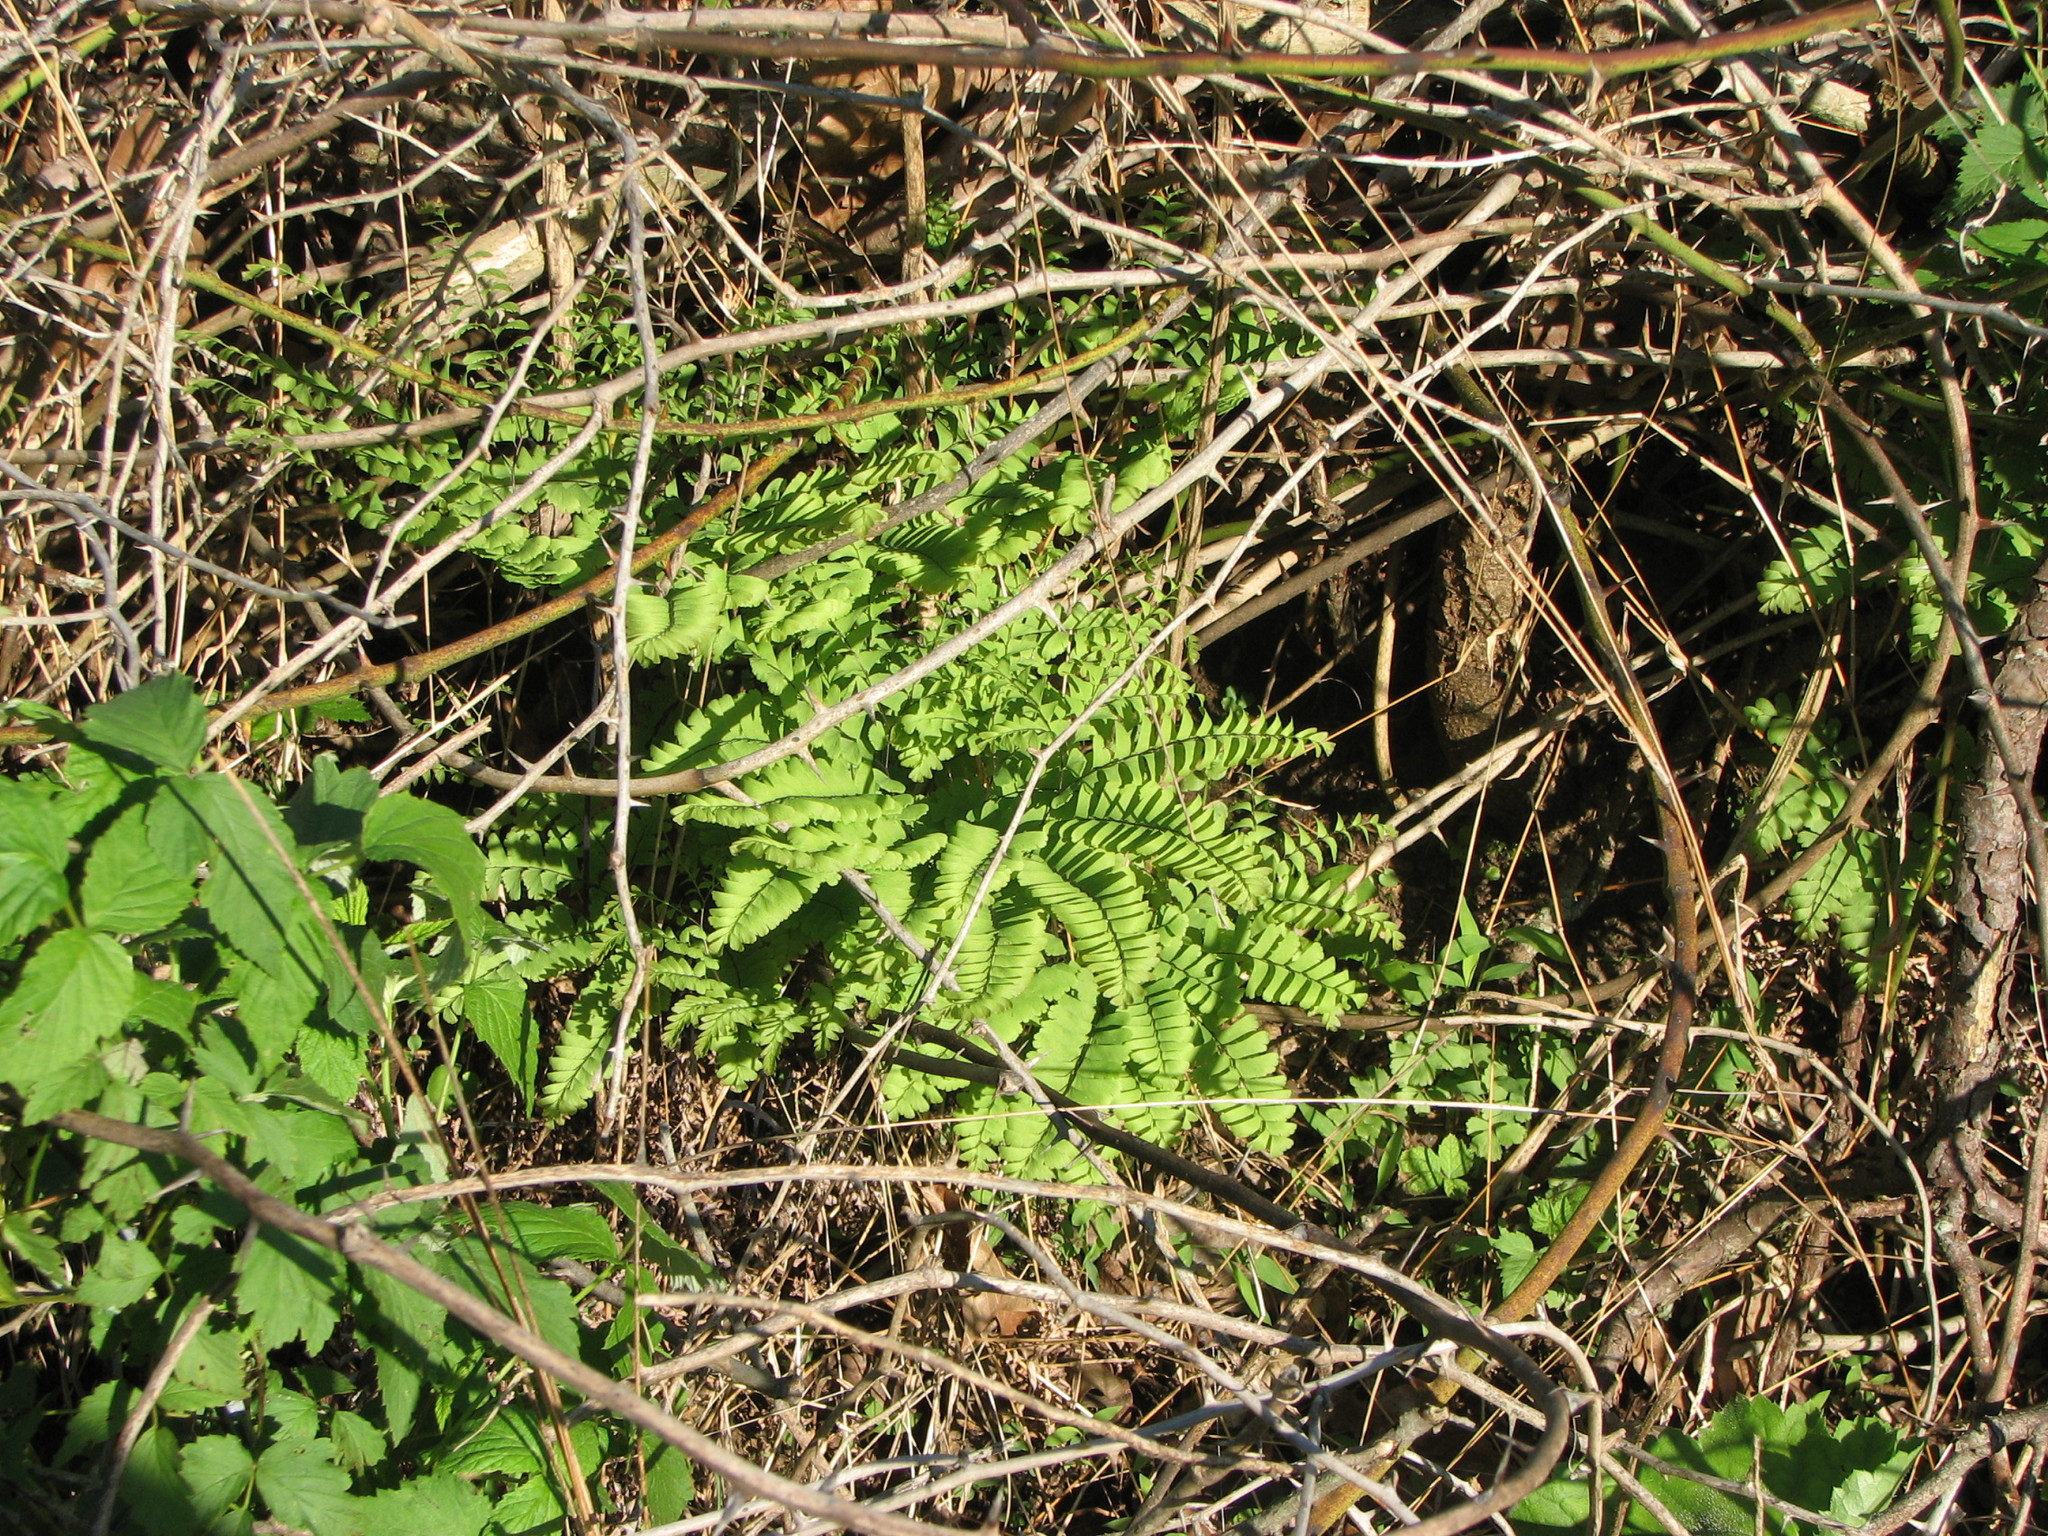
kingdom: Plantae
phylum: Tracheophyta
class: Polypodiopsida
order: Polypodiales
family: Pteridaceae
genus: Adiantum
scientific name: Adiantum pedatum
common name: Five-finger fern
